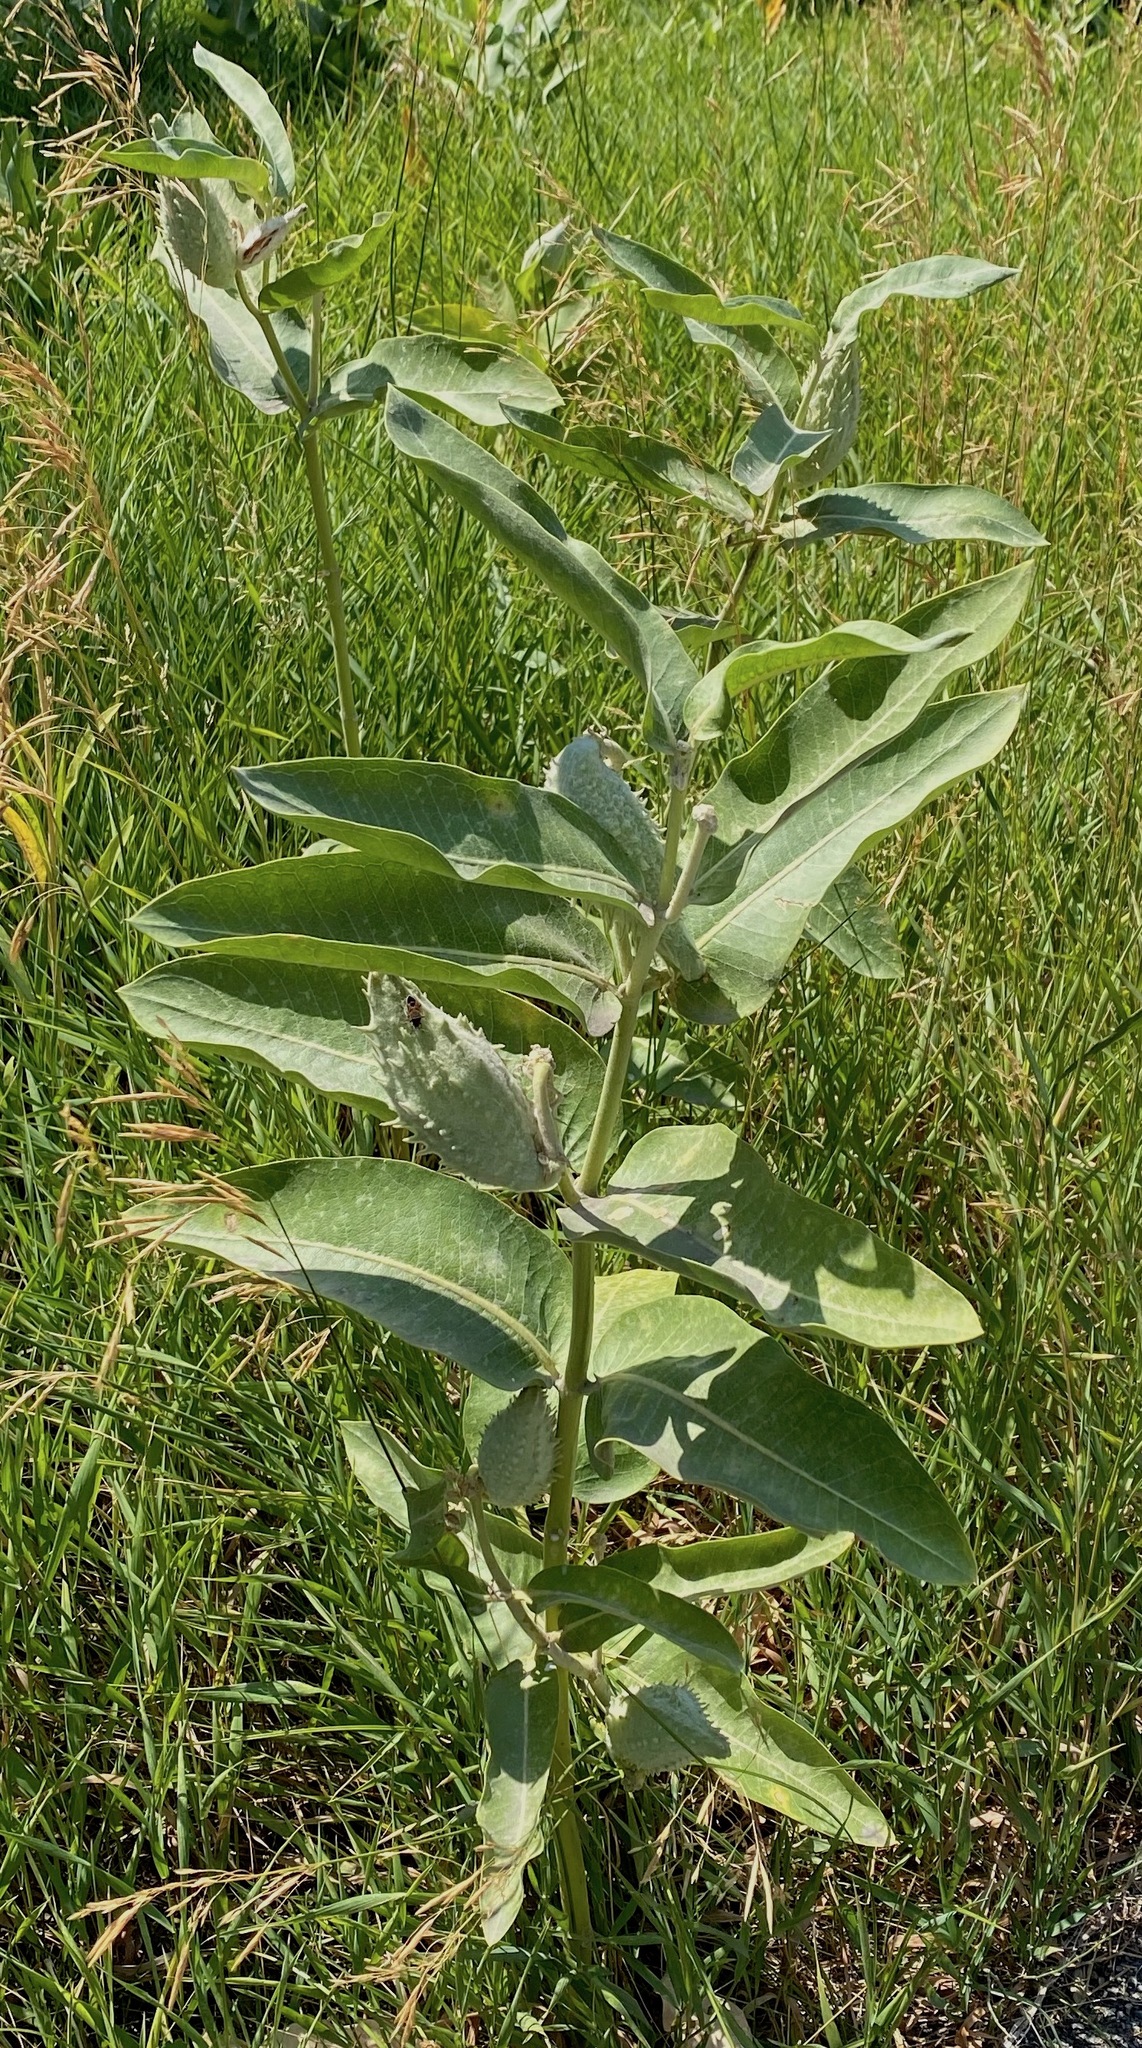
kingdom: Plantae
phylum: Tracheophyta
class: Magnoliopsida
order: Gentianales
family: Apocynaceae
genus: Asclepias
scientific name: Asclepias speciosa
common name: Showy milkweed
